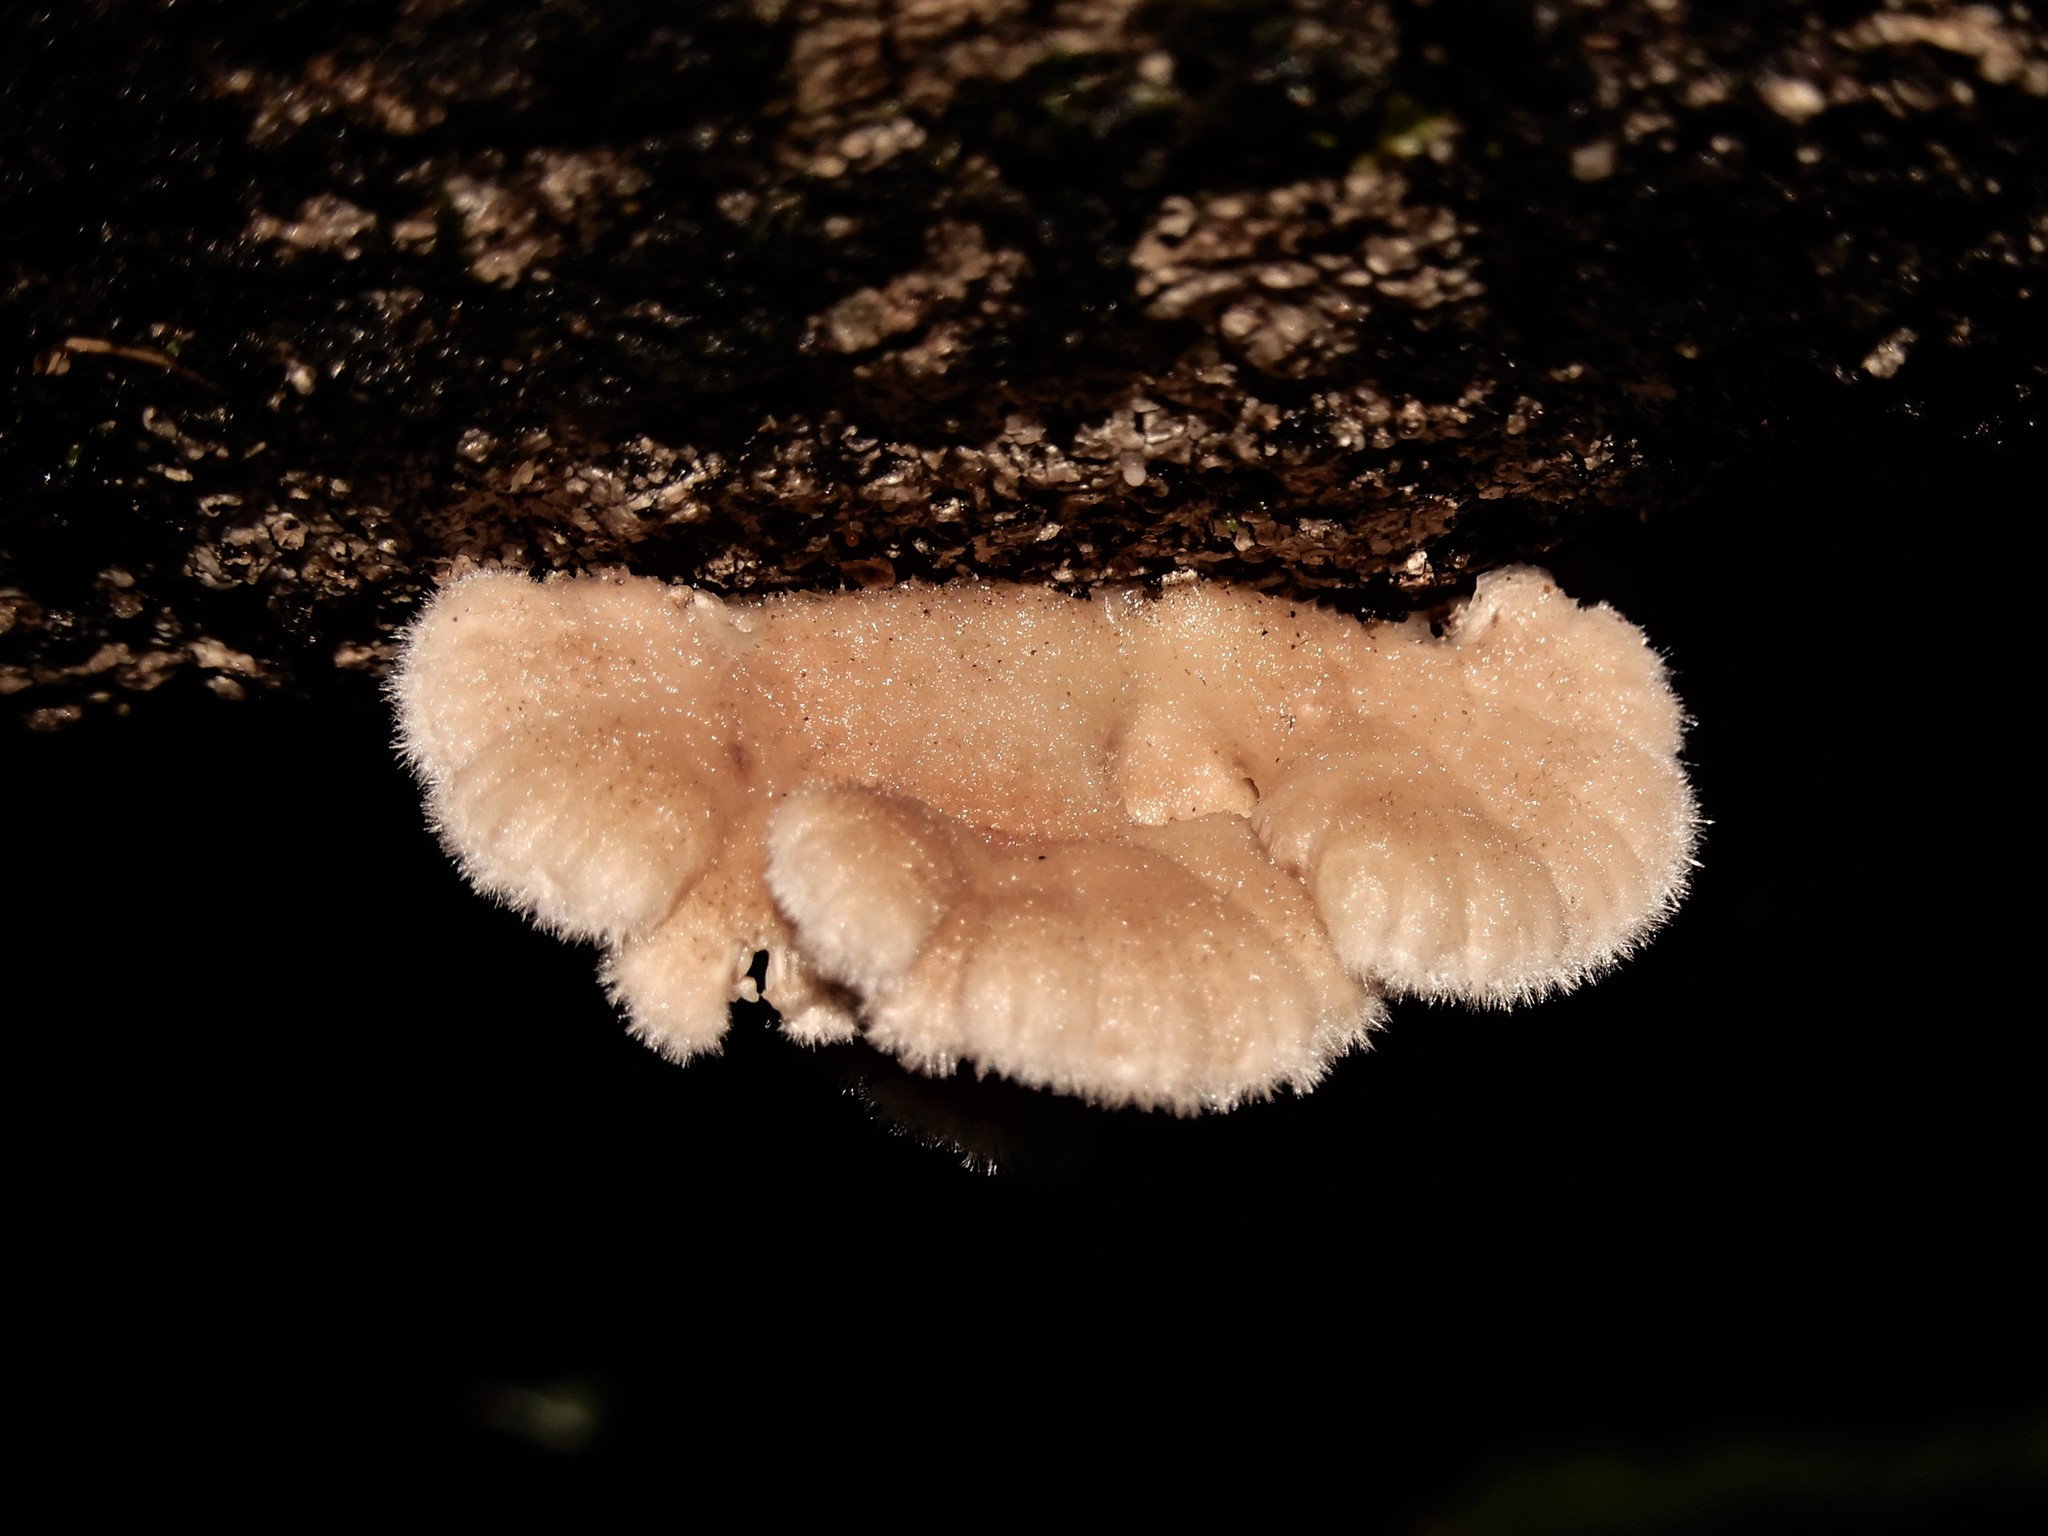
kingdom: Fungi
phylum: Basidiomycota
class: Agaricomycetes
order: Agaricales
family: Schizophyllaceae
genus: Schizophyllum
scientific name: Schizophyllum commune
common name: Common porecrust
